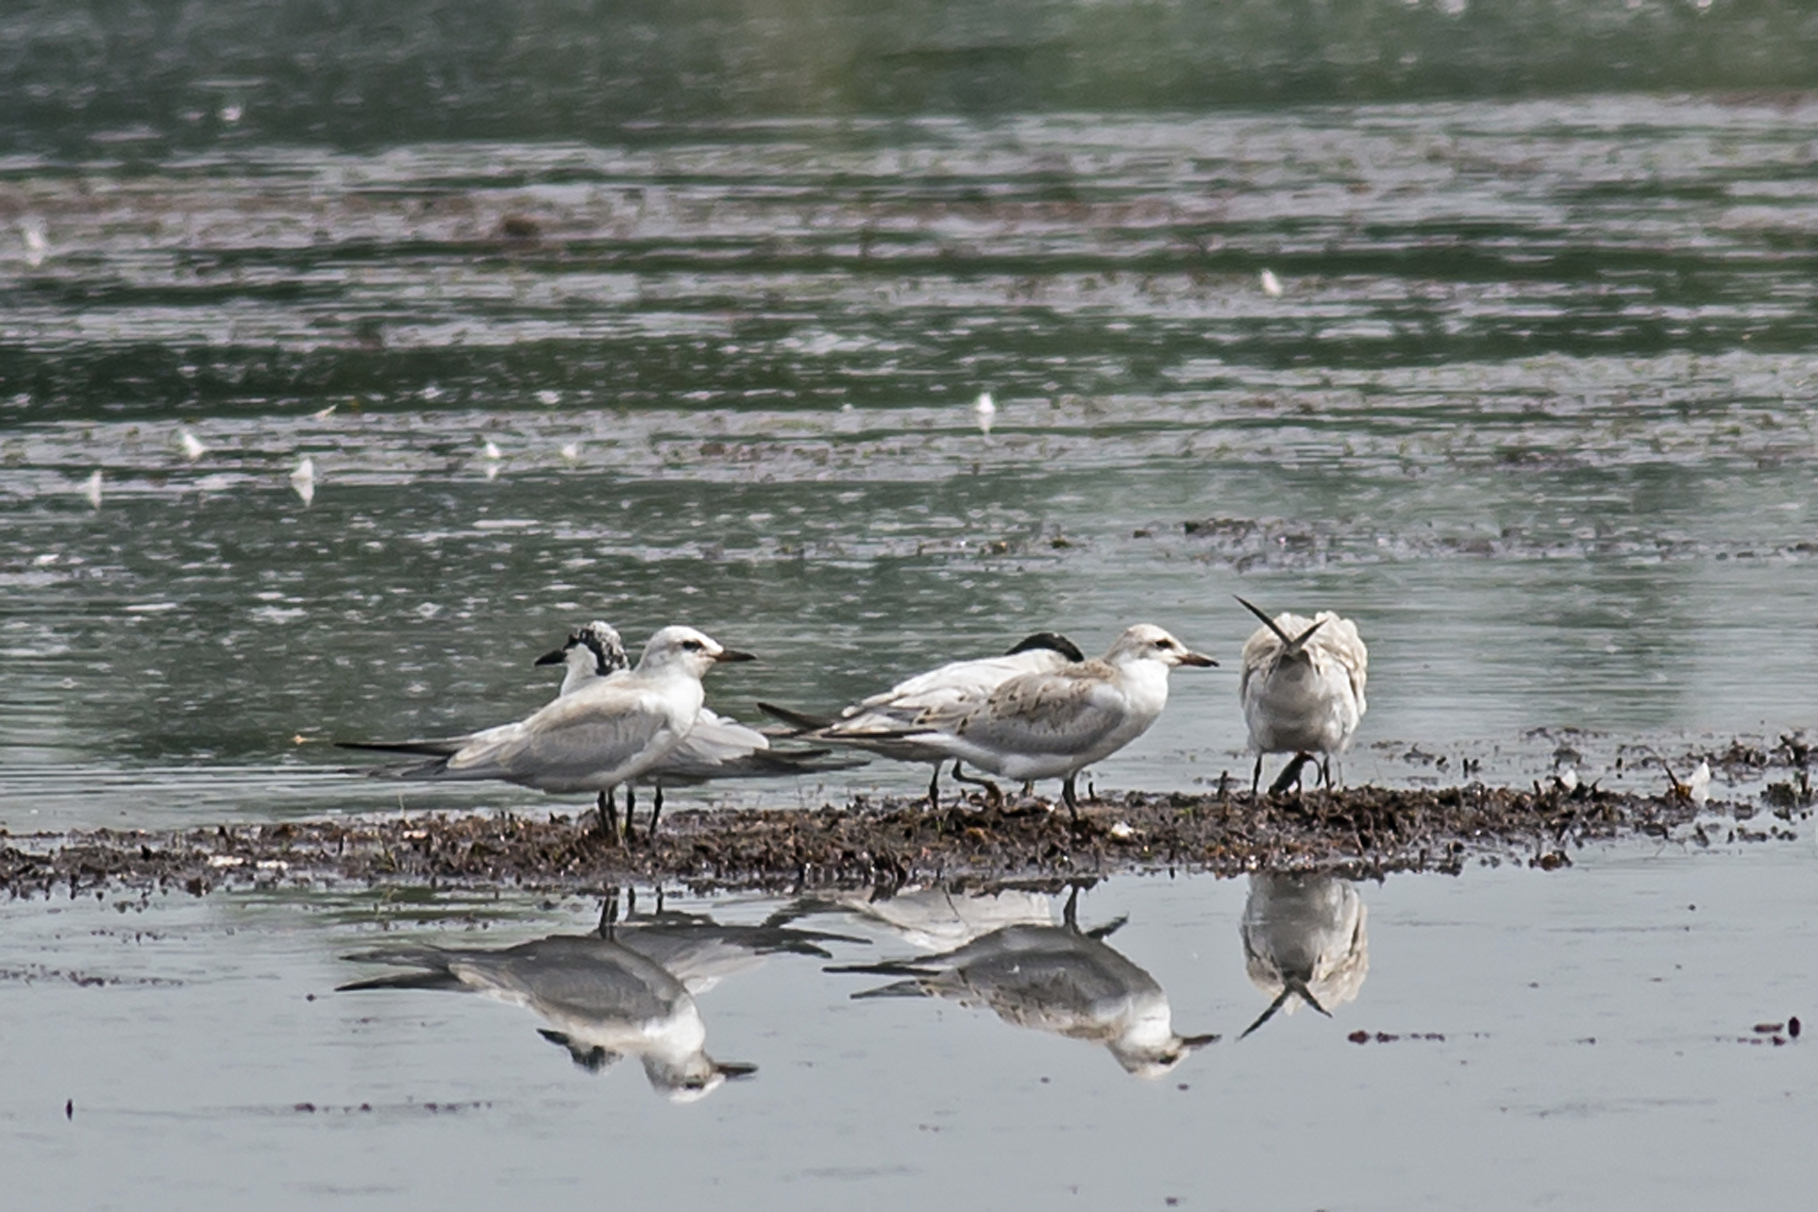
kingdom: Animalia
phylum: Chordata
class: Aves
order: Charadriiformes
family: Laridae
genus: Gelochelidon
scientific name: Gelochelidon nilotica
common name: Gull-billed tern
